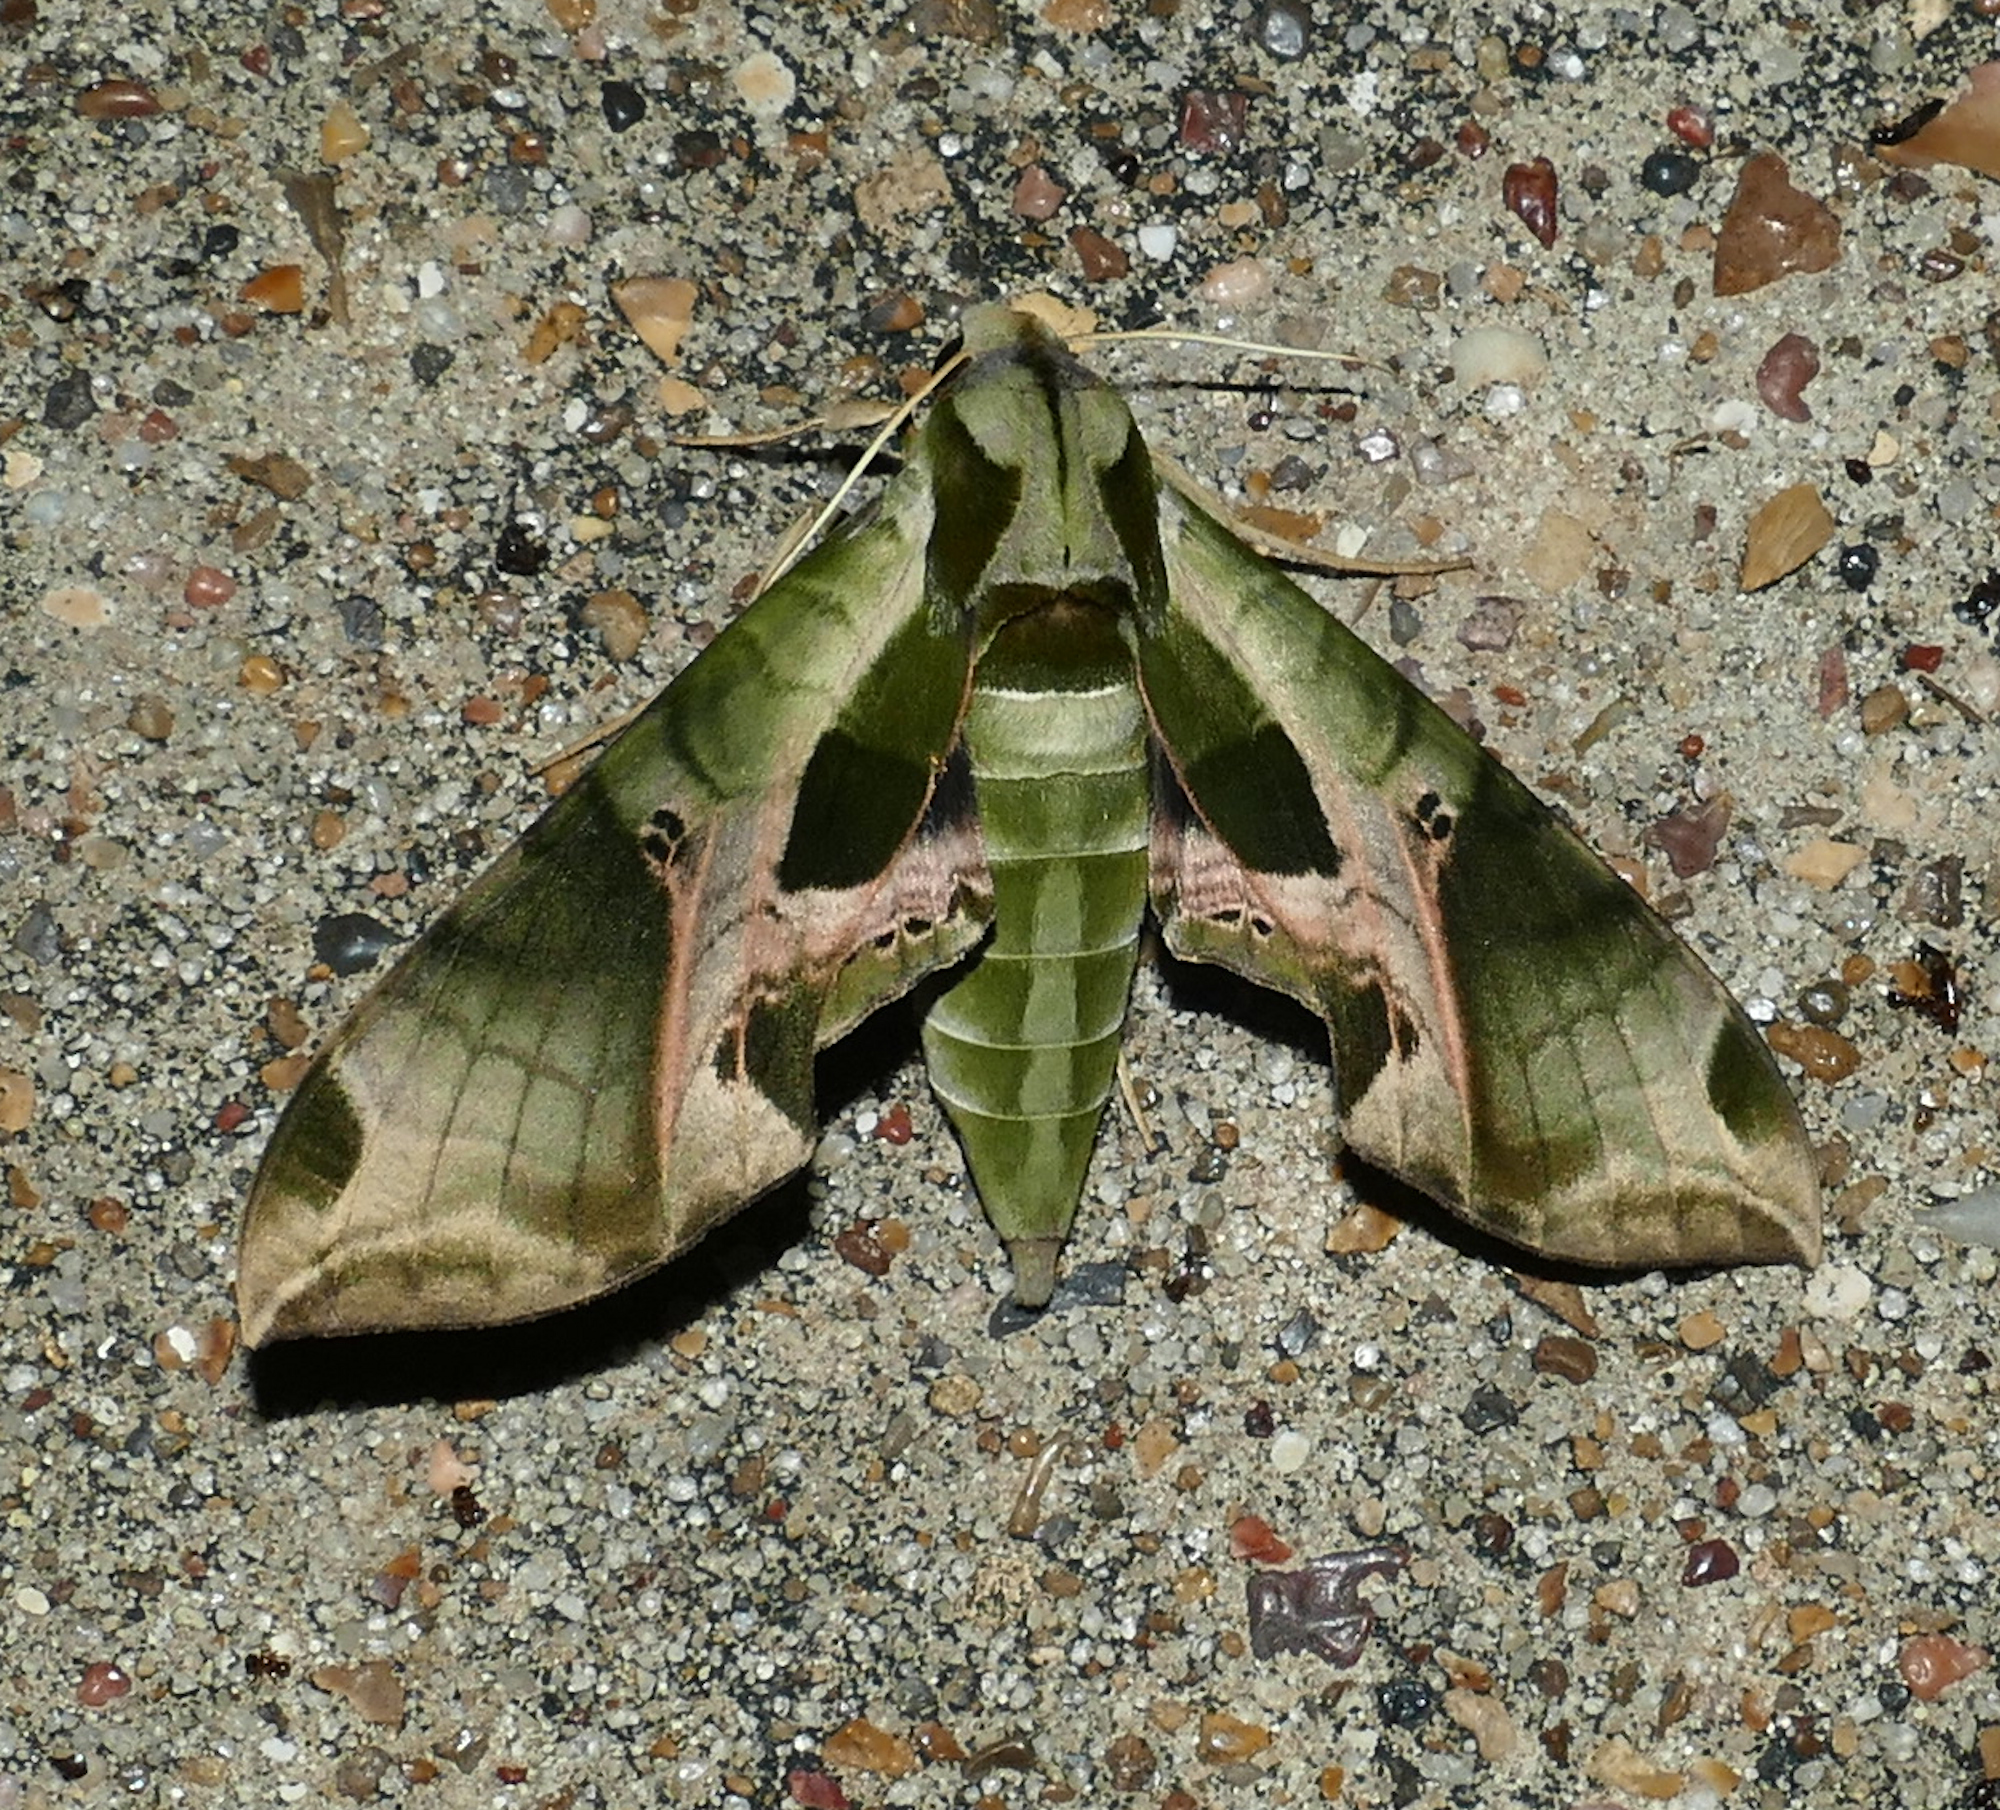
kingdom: Animalia
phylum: Arthropoda
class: Insecta
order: Lepidoptera
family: Sphingidae
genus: Eumorpha
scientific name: Eumorpha pandorus
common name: Pandora sphinx
